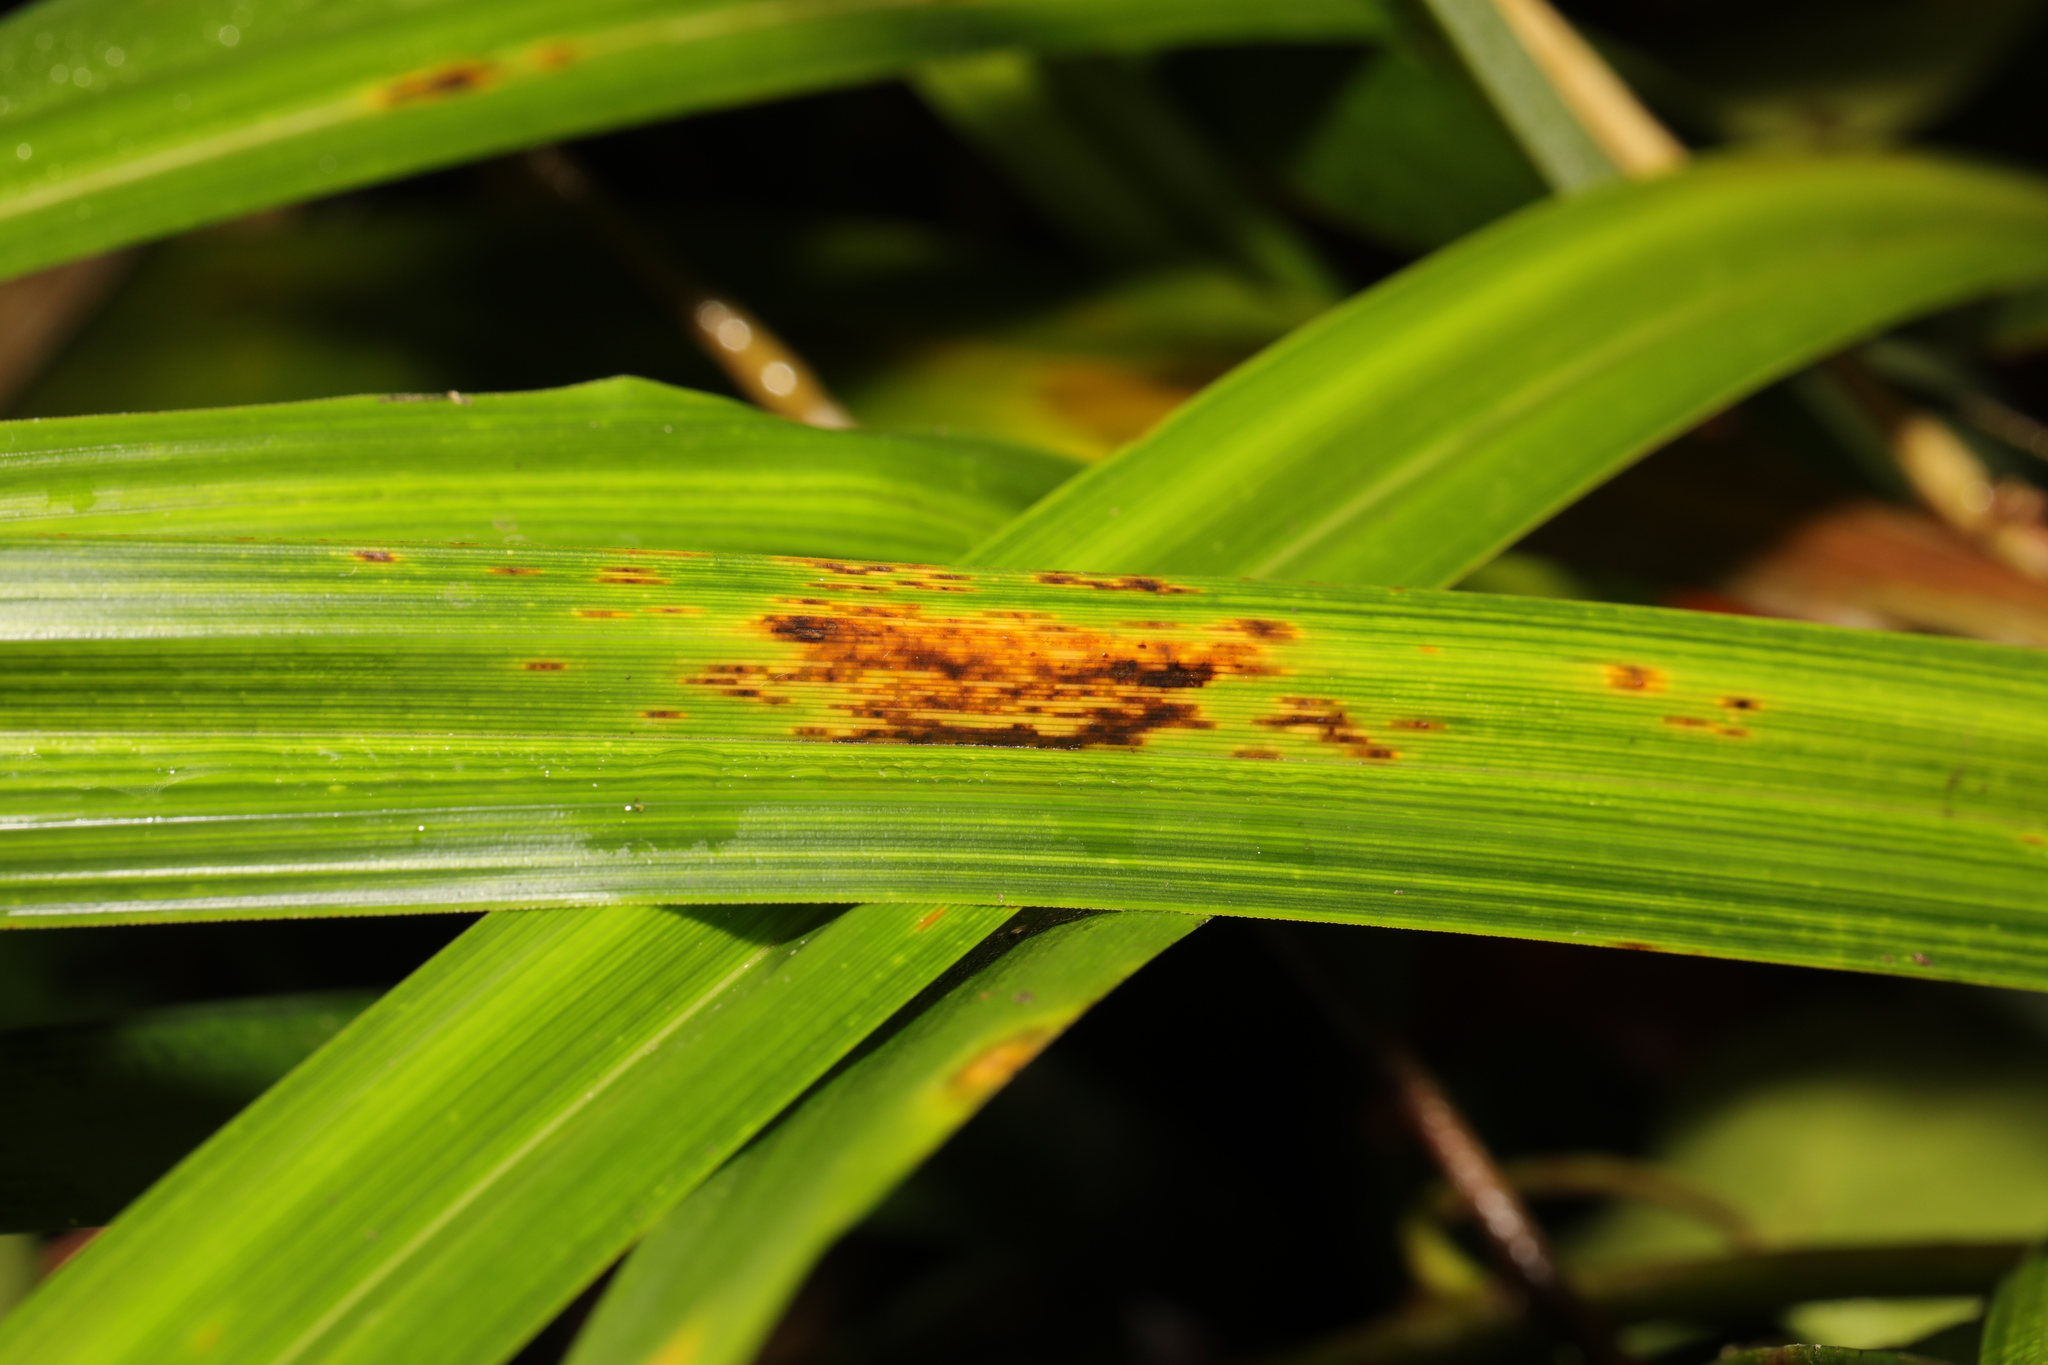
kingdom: Fungi
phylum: Basidiomycota
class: Pucciniomycetes
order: Pucciniales
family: Pucciniaceae
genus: Puccinia
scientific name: Puccinia iridis
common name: Iris rust
